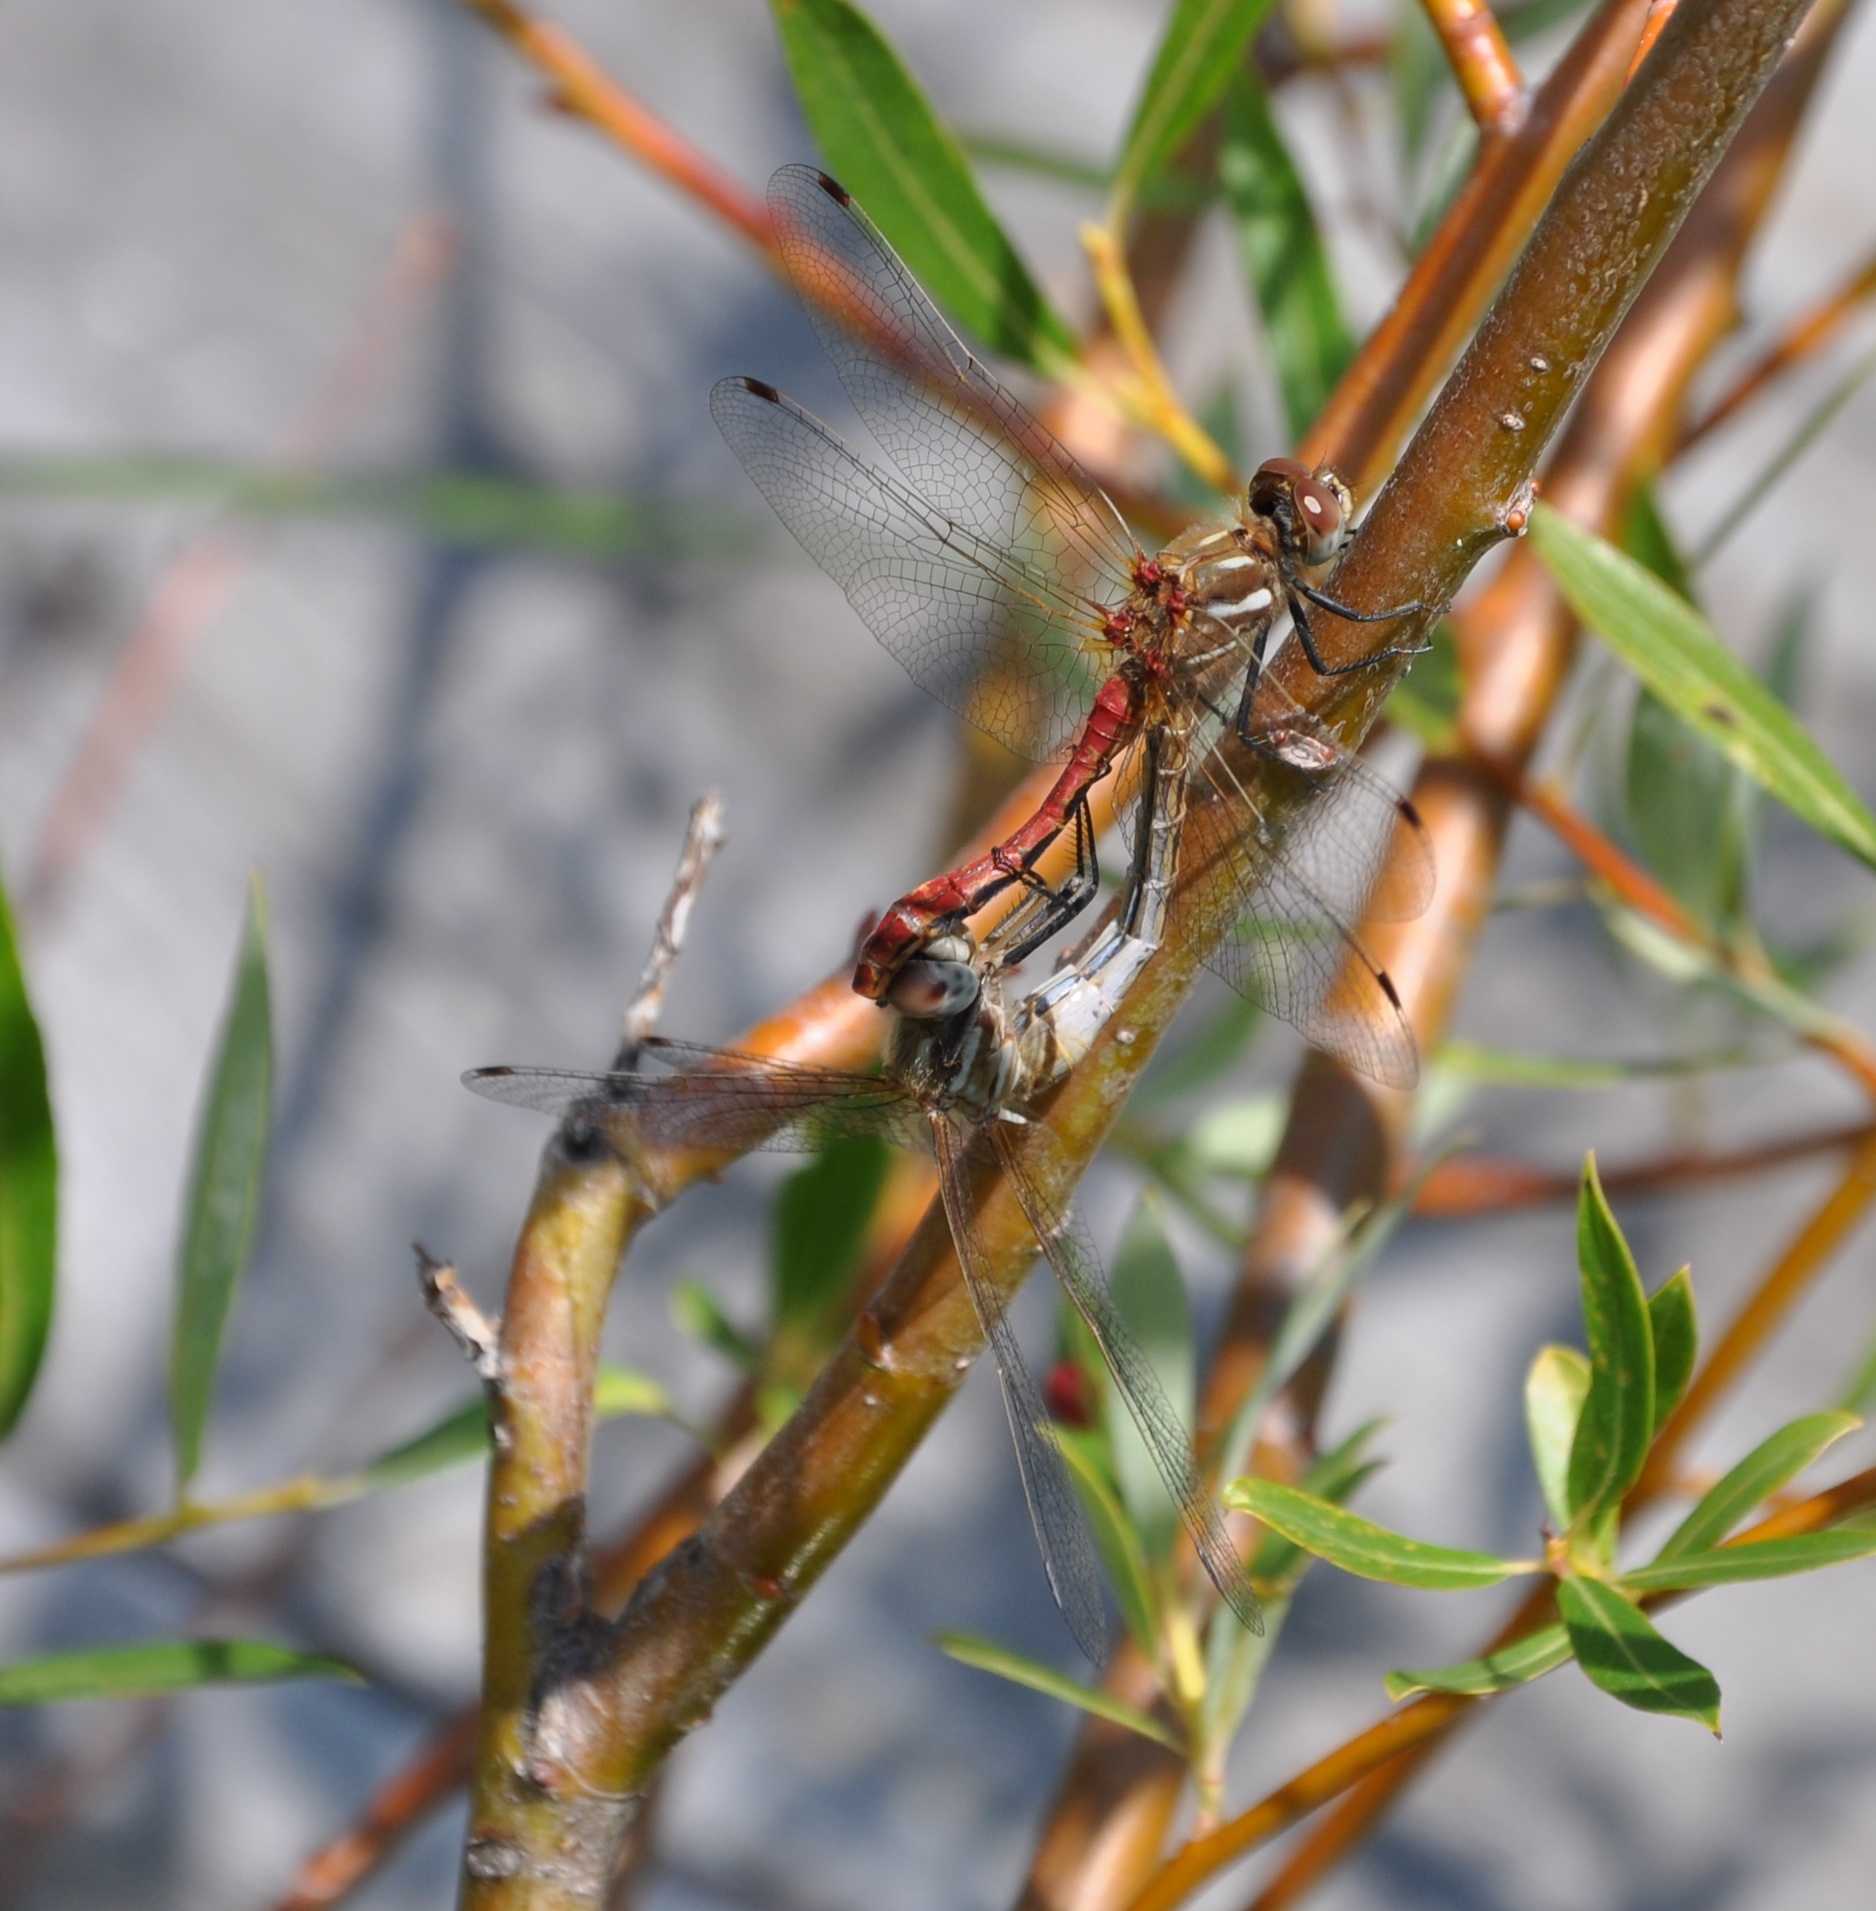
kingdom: Animalia
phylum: Arthropoda
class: Insecta
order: Odonata
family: Libellulidae
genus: Sympetrum
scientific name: Sympetrum pallipes
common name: Striped meadowhawk
